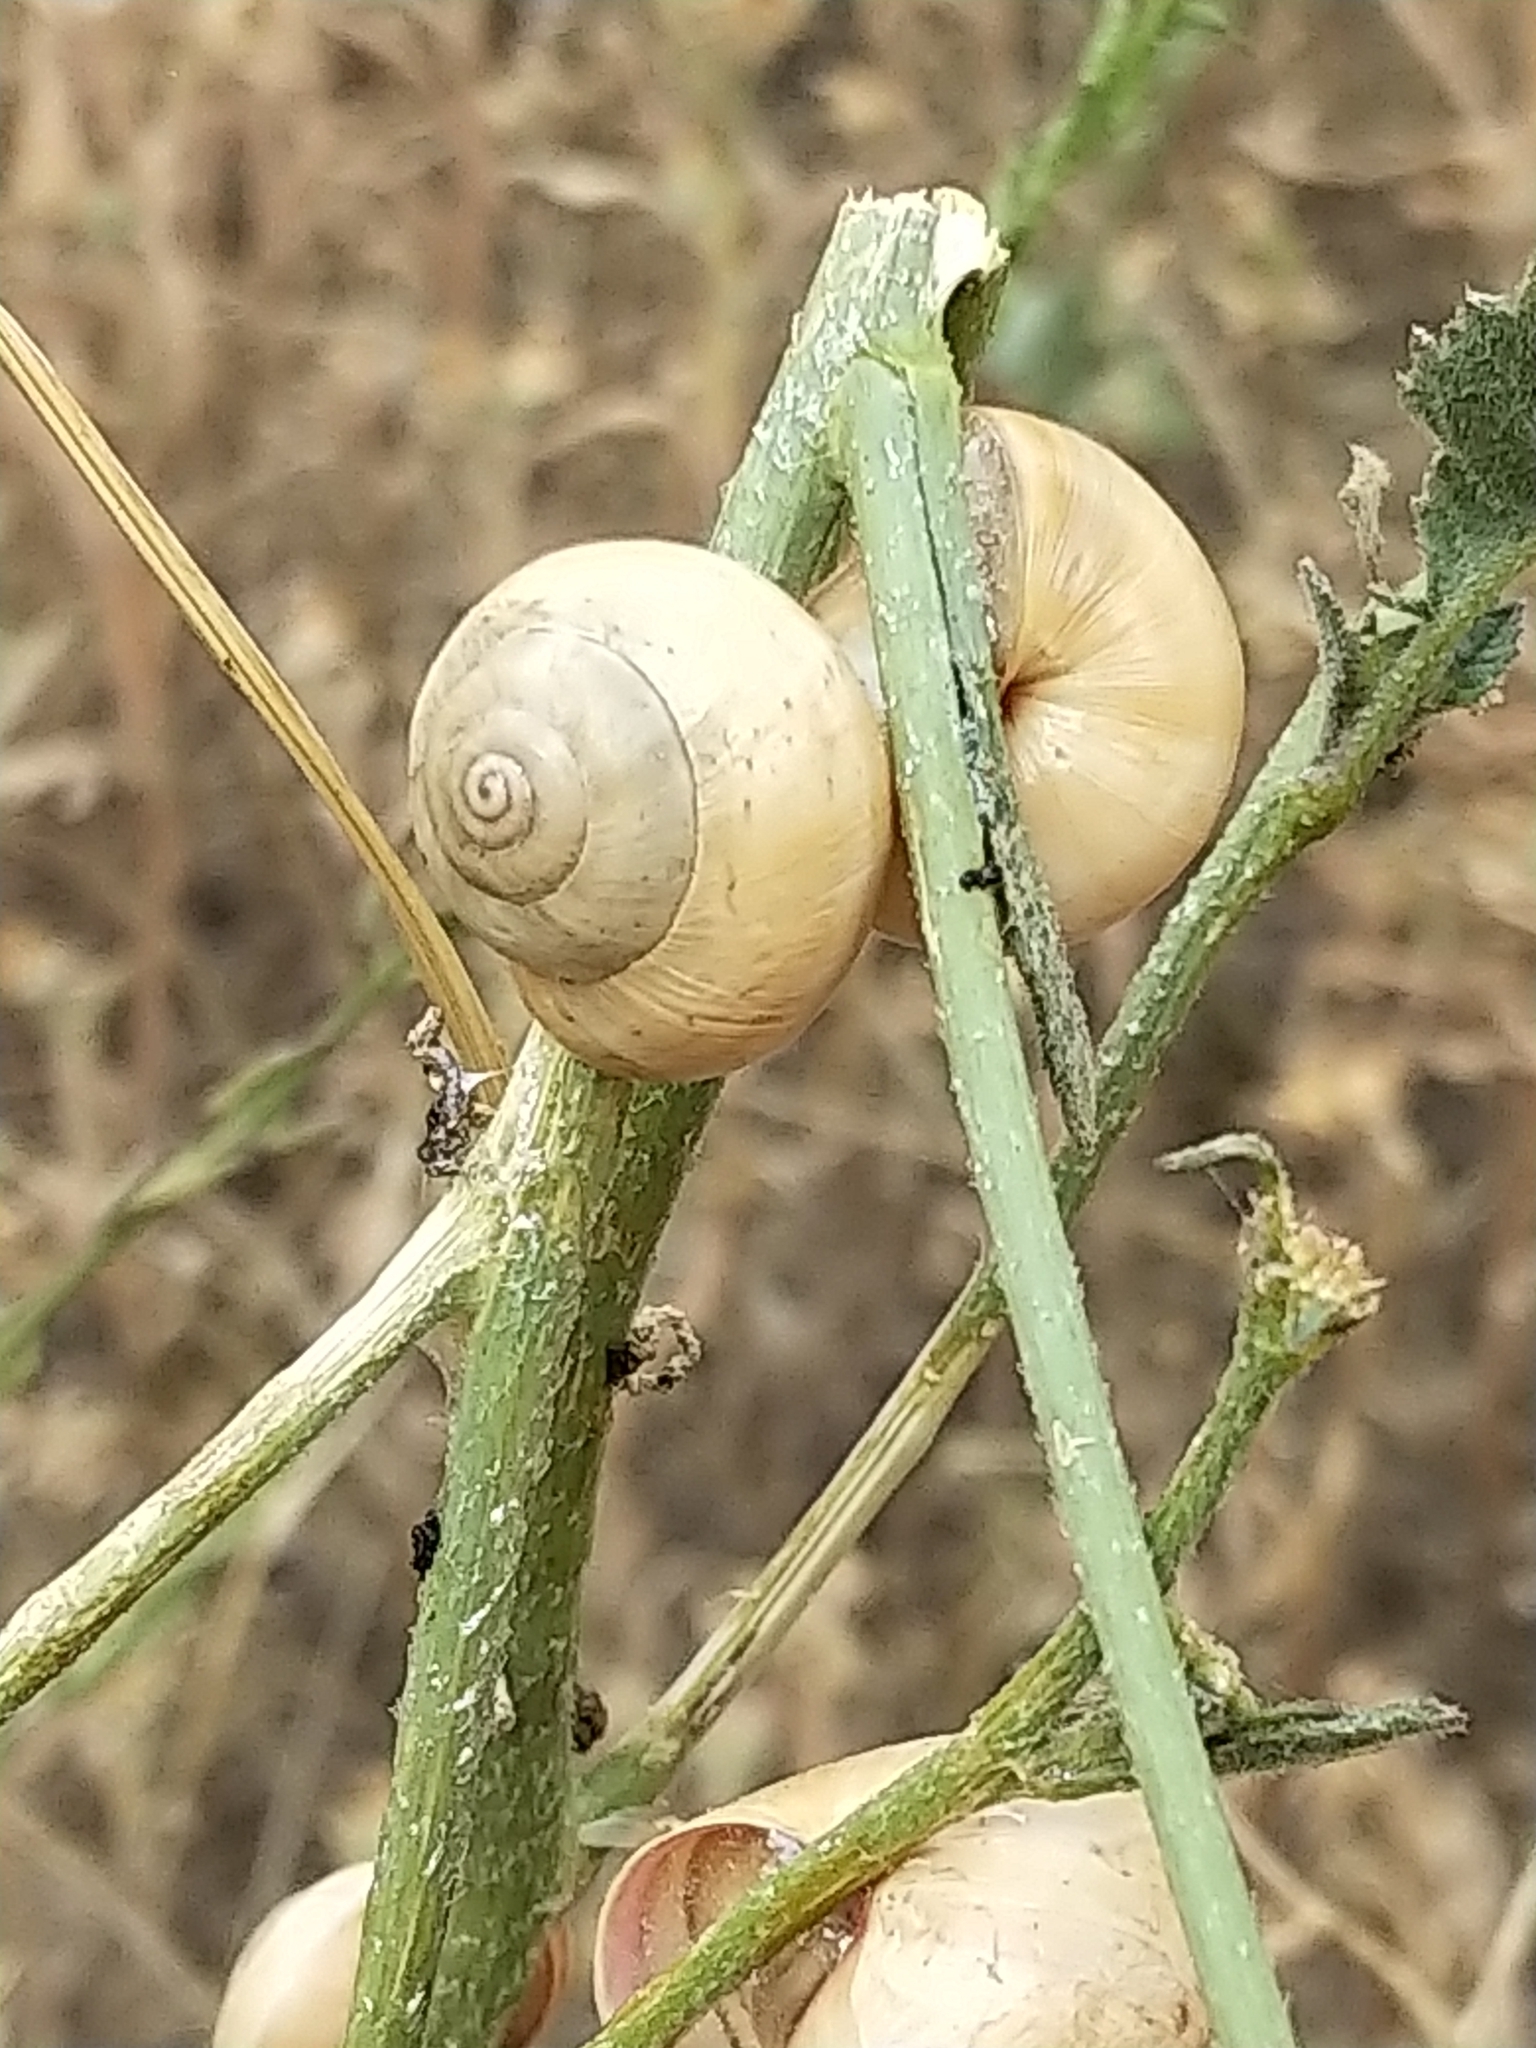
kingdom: Animalia
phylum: Mollusca
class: Gastropoda
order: Stylommatophora
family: Helicidae
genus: Theba
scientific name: Theba pisana
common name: White snail
